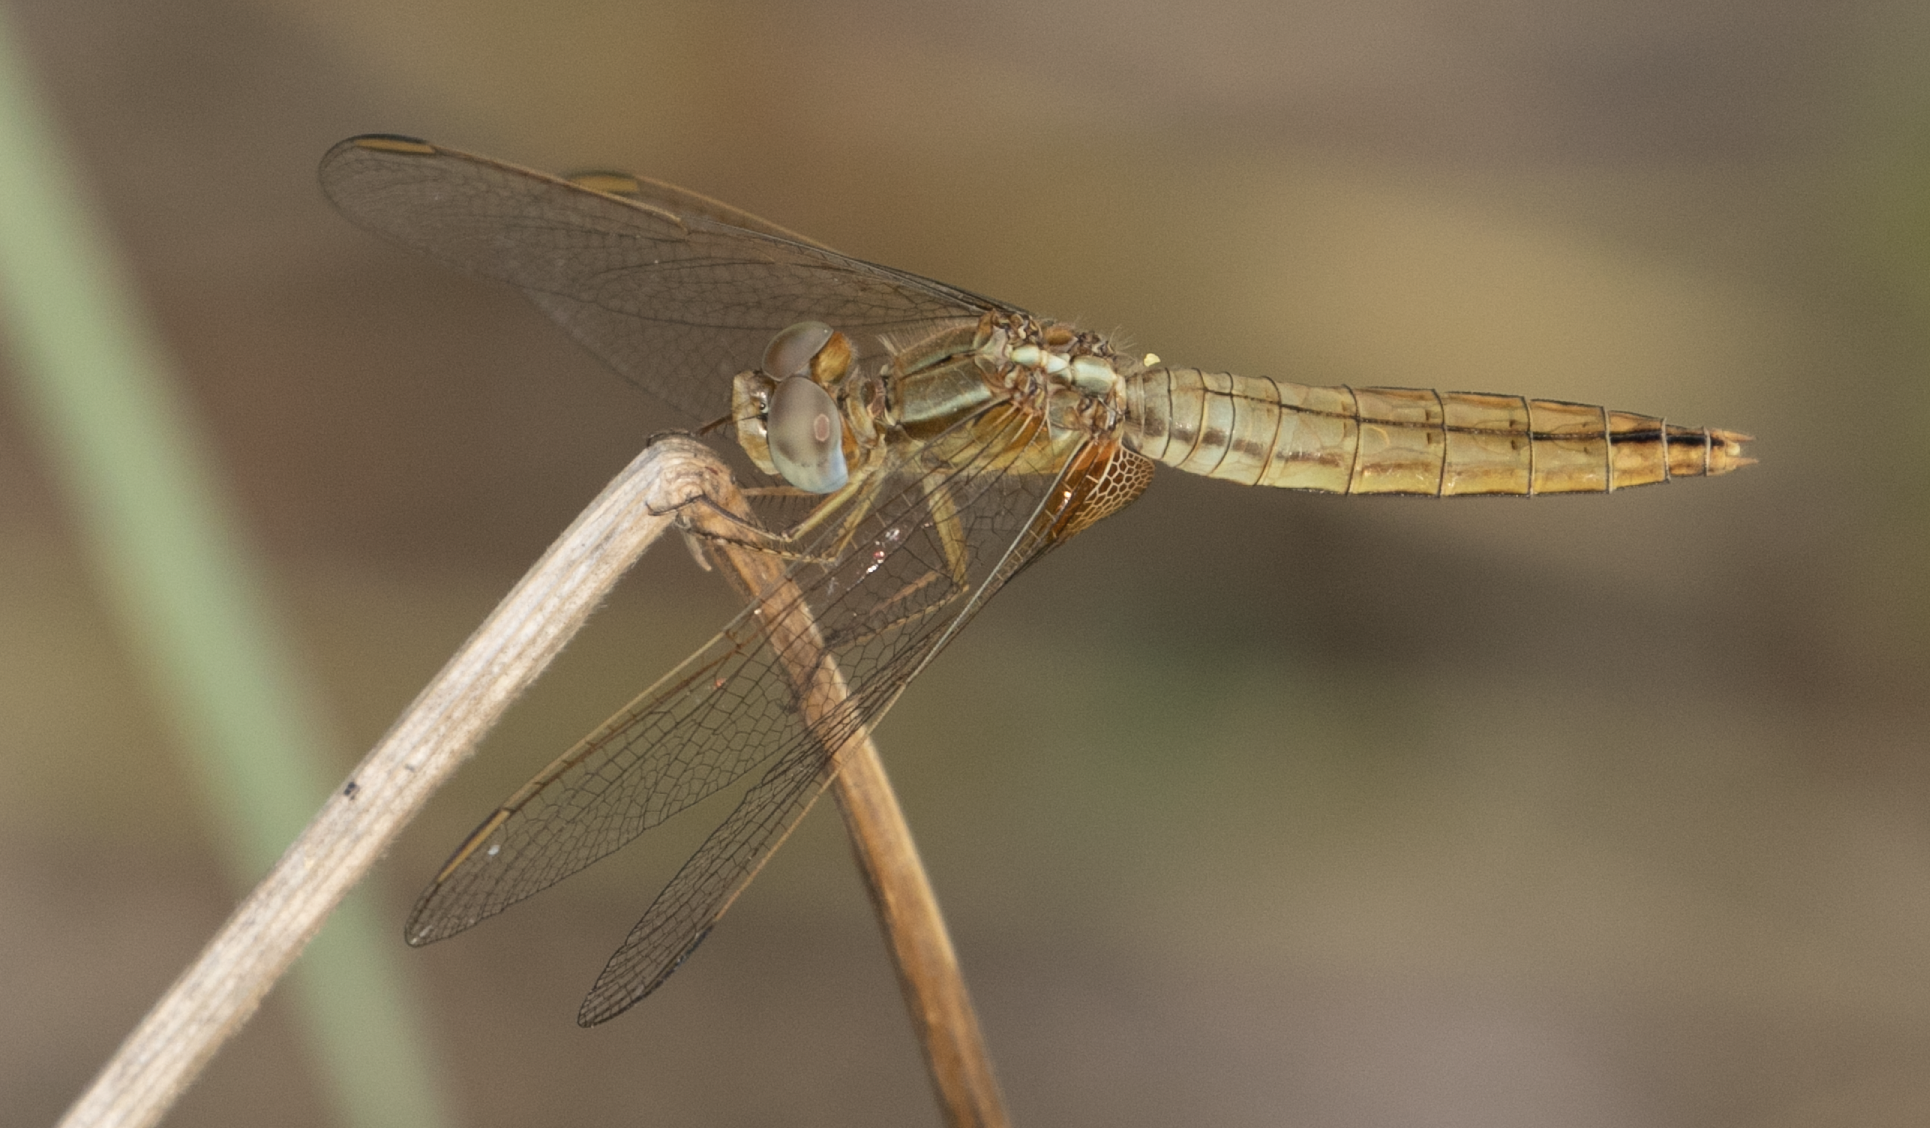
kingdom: Animalia
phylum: Arthropoda
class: Insecta
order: Odonata
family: Libellulidae
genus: Crocothemis
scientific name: Crocothemis erythraea
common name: Scarlet dragonfly
